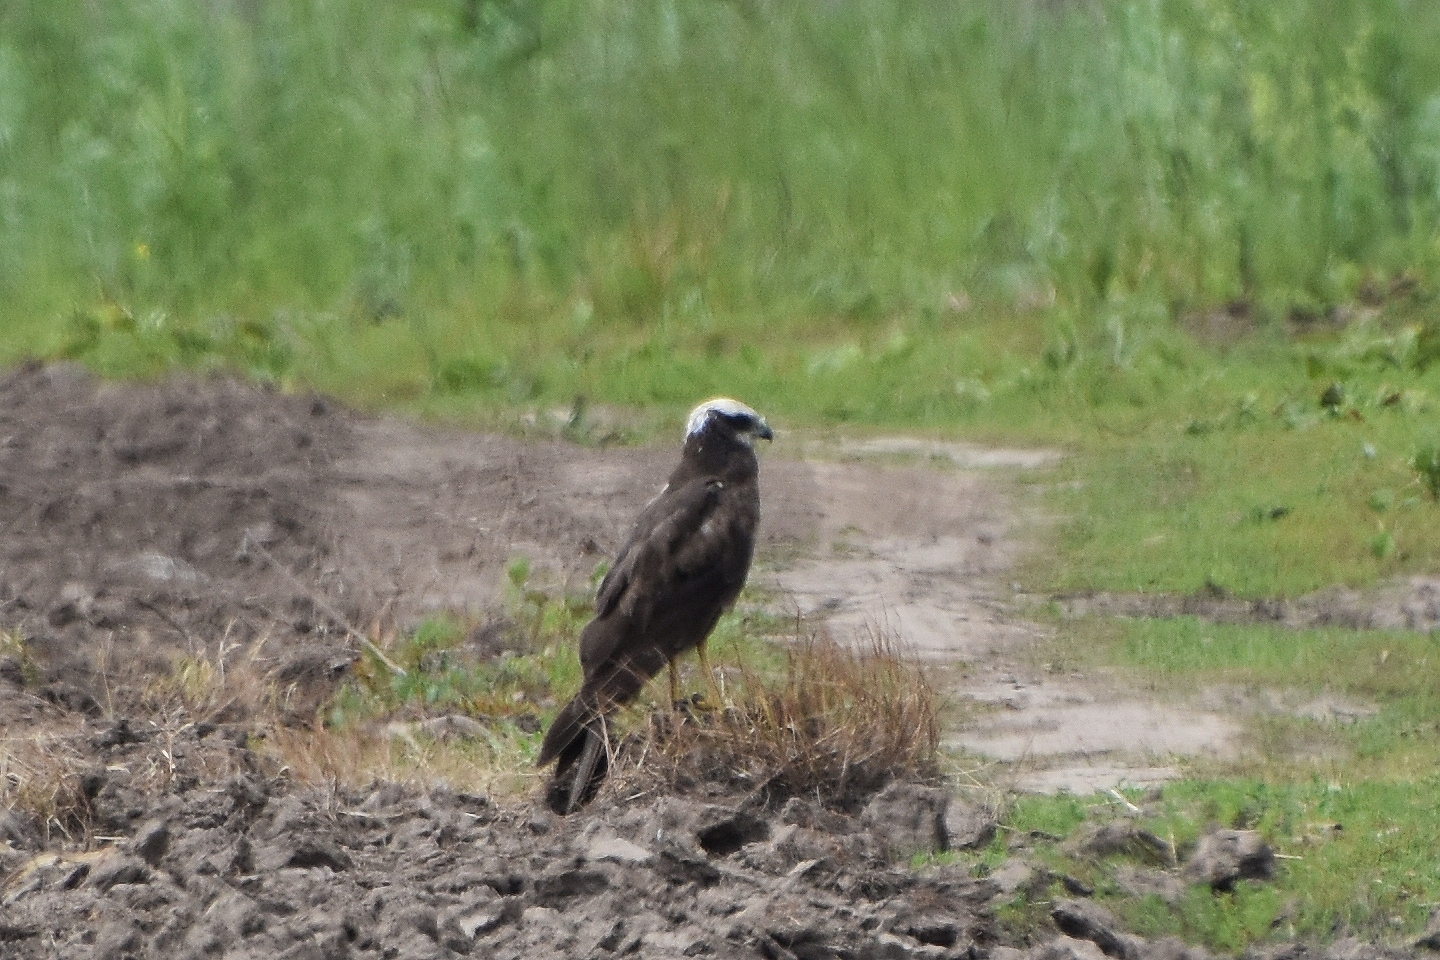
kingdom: Animalia
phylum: Chordata
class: Aves
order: Accipitriformes
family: Accipitridae
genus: Circus
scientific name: Circus aeruginosus
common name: Western marsh harrier
